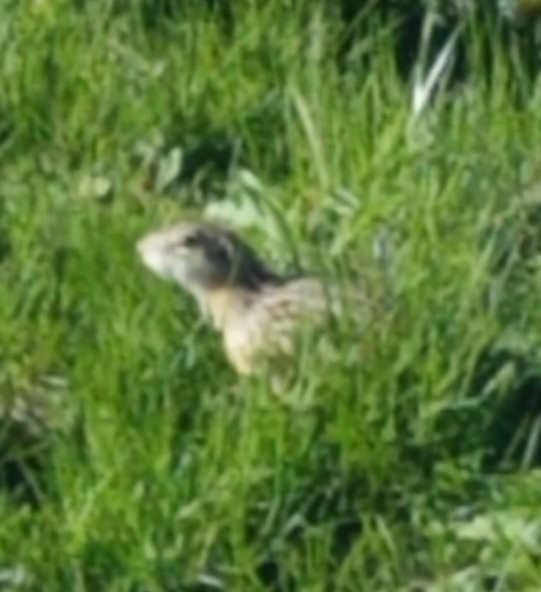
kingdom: Animalia
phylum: Chordata
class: Mammalia
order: Rodentia
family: Sciuridae
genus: Ictidomys
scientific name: Ictidomys tridecemlineatus
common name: Thirteen-lined ground squirrel
